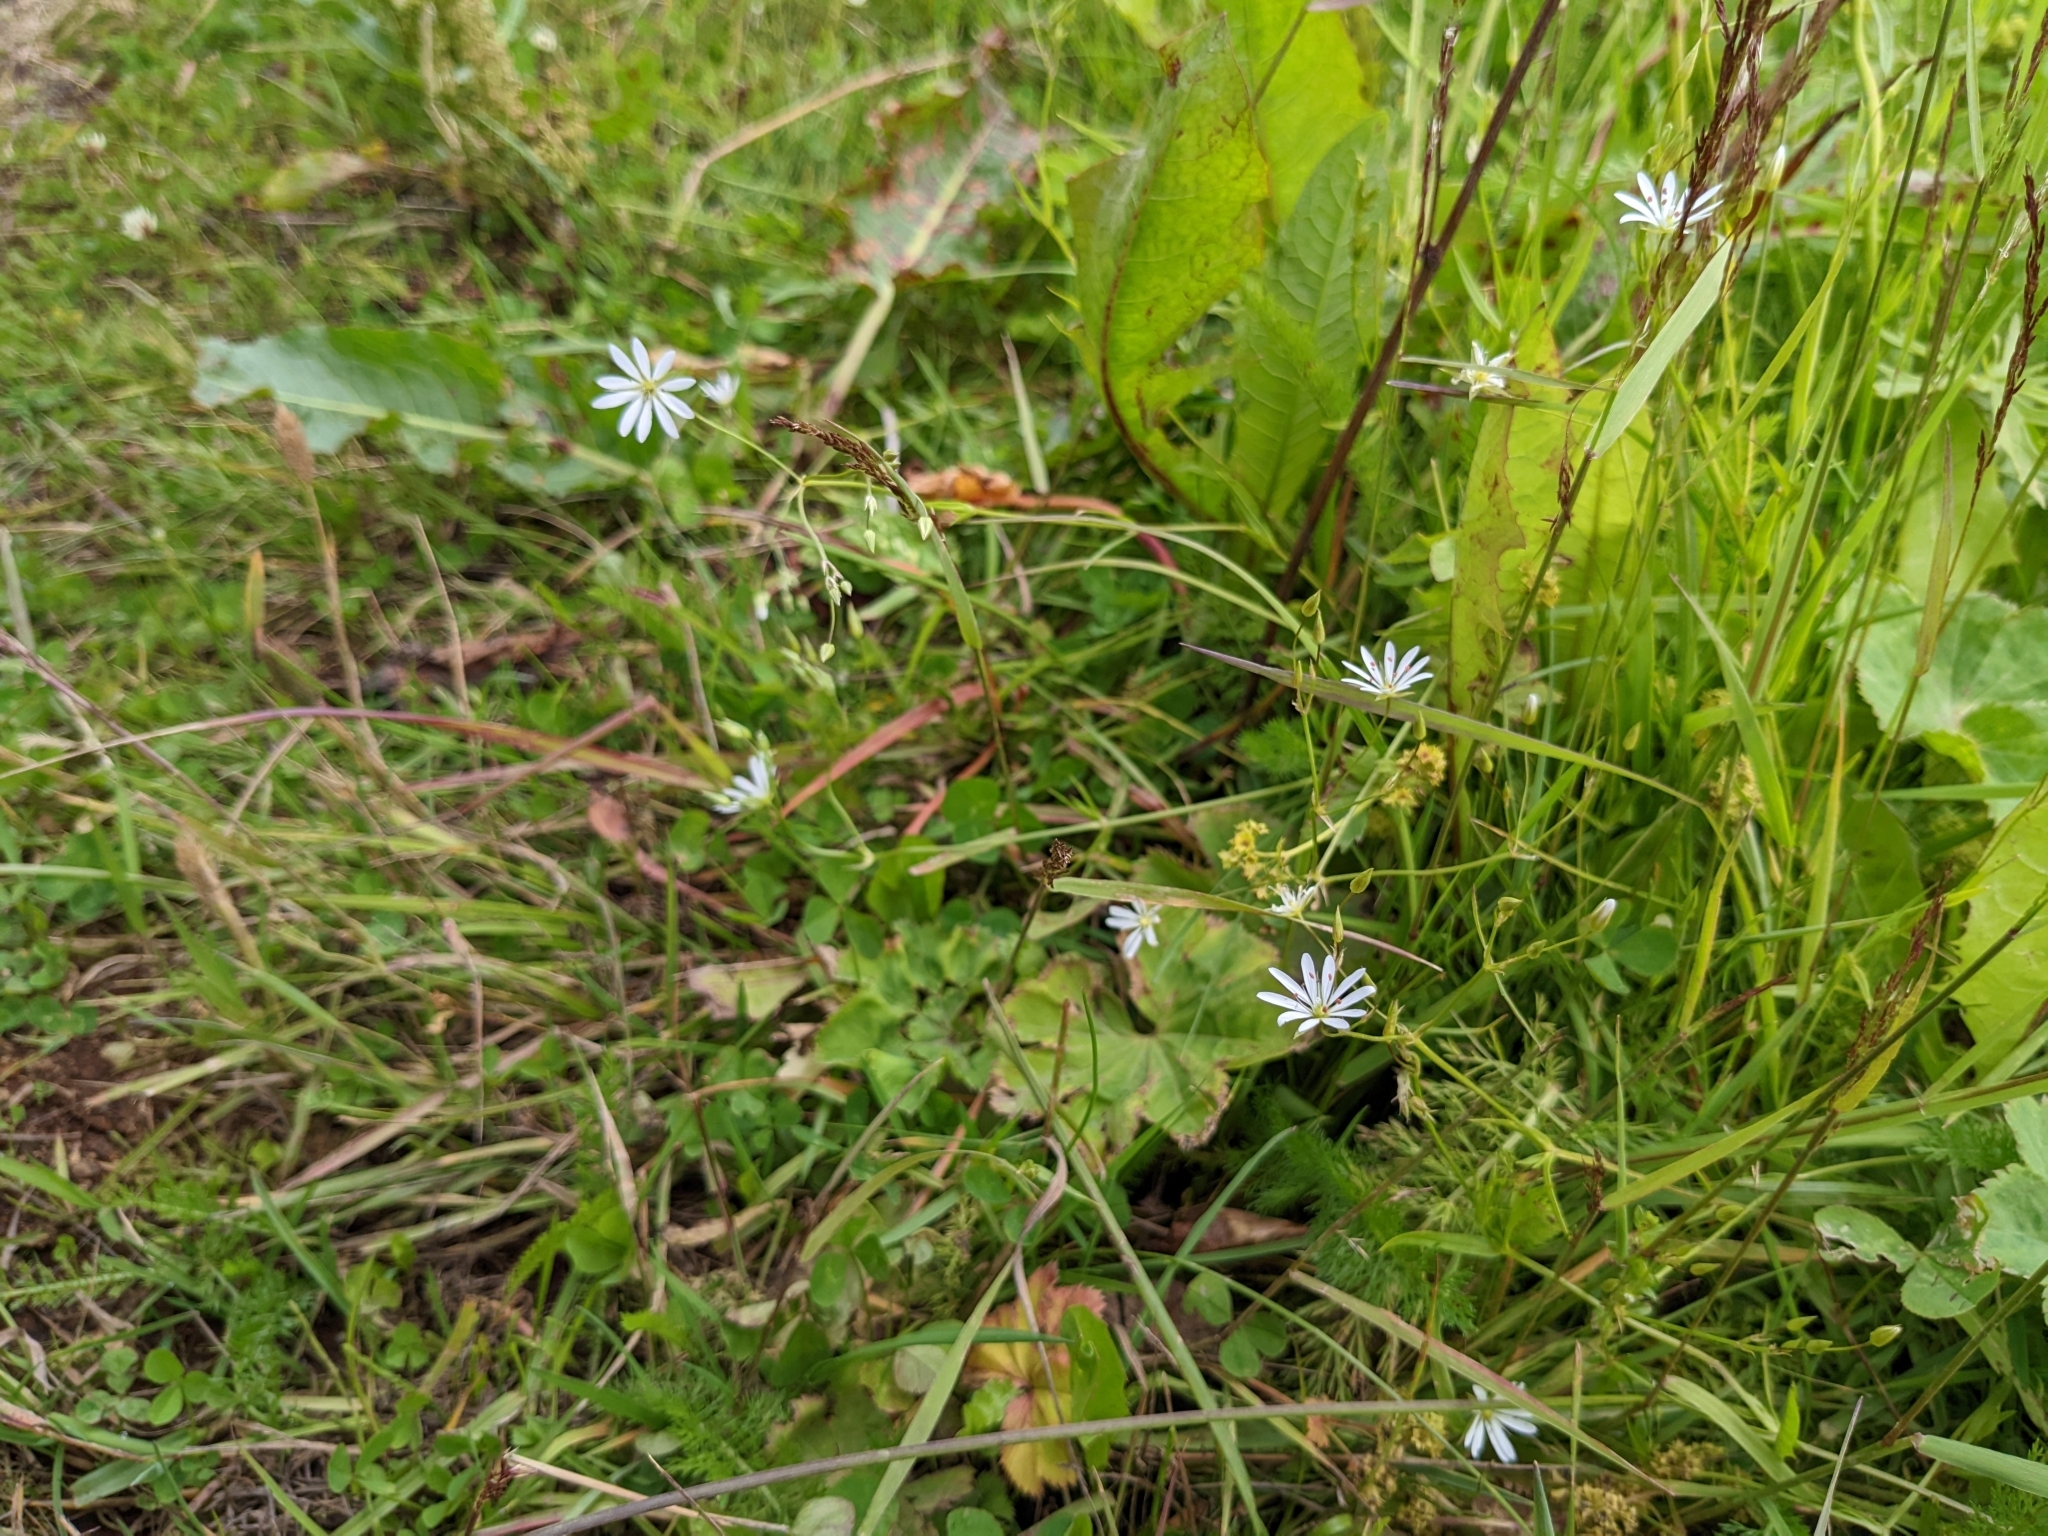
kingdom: Plantae
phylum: Tracheophyta
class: Magnoliopsida
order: Caryophyllales
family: Caryophyllaceae
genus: Stellaria
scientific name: Stellaria nemorum
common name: Wood stitchwort
